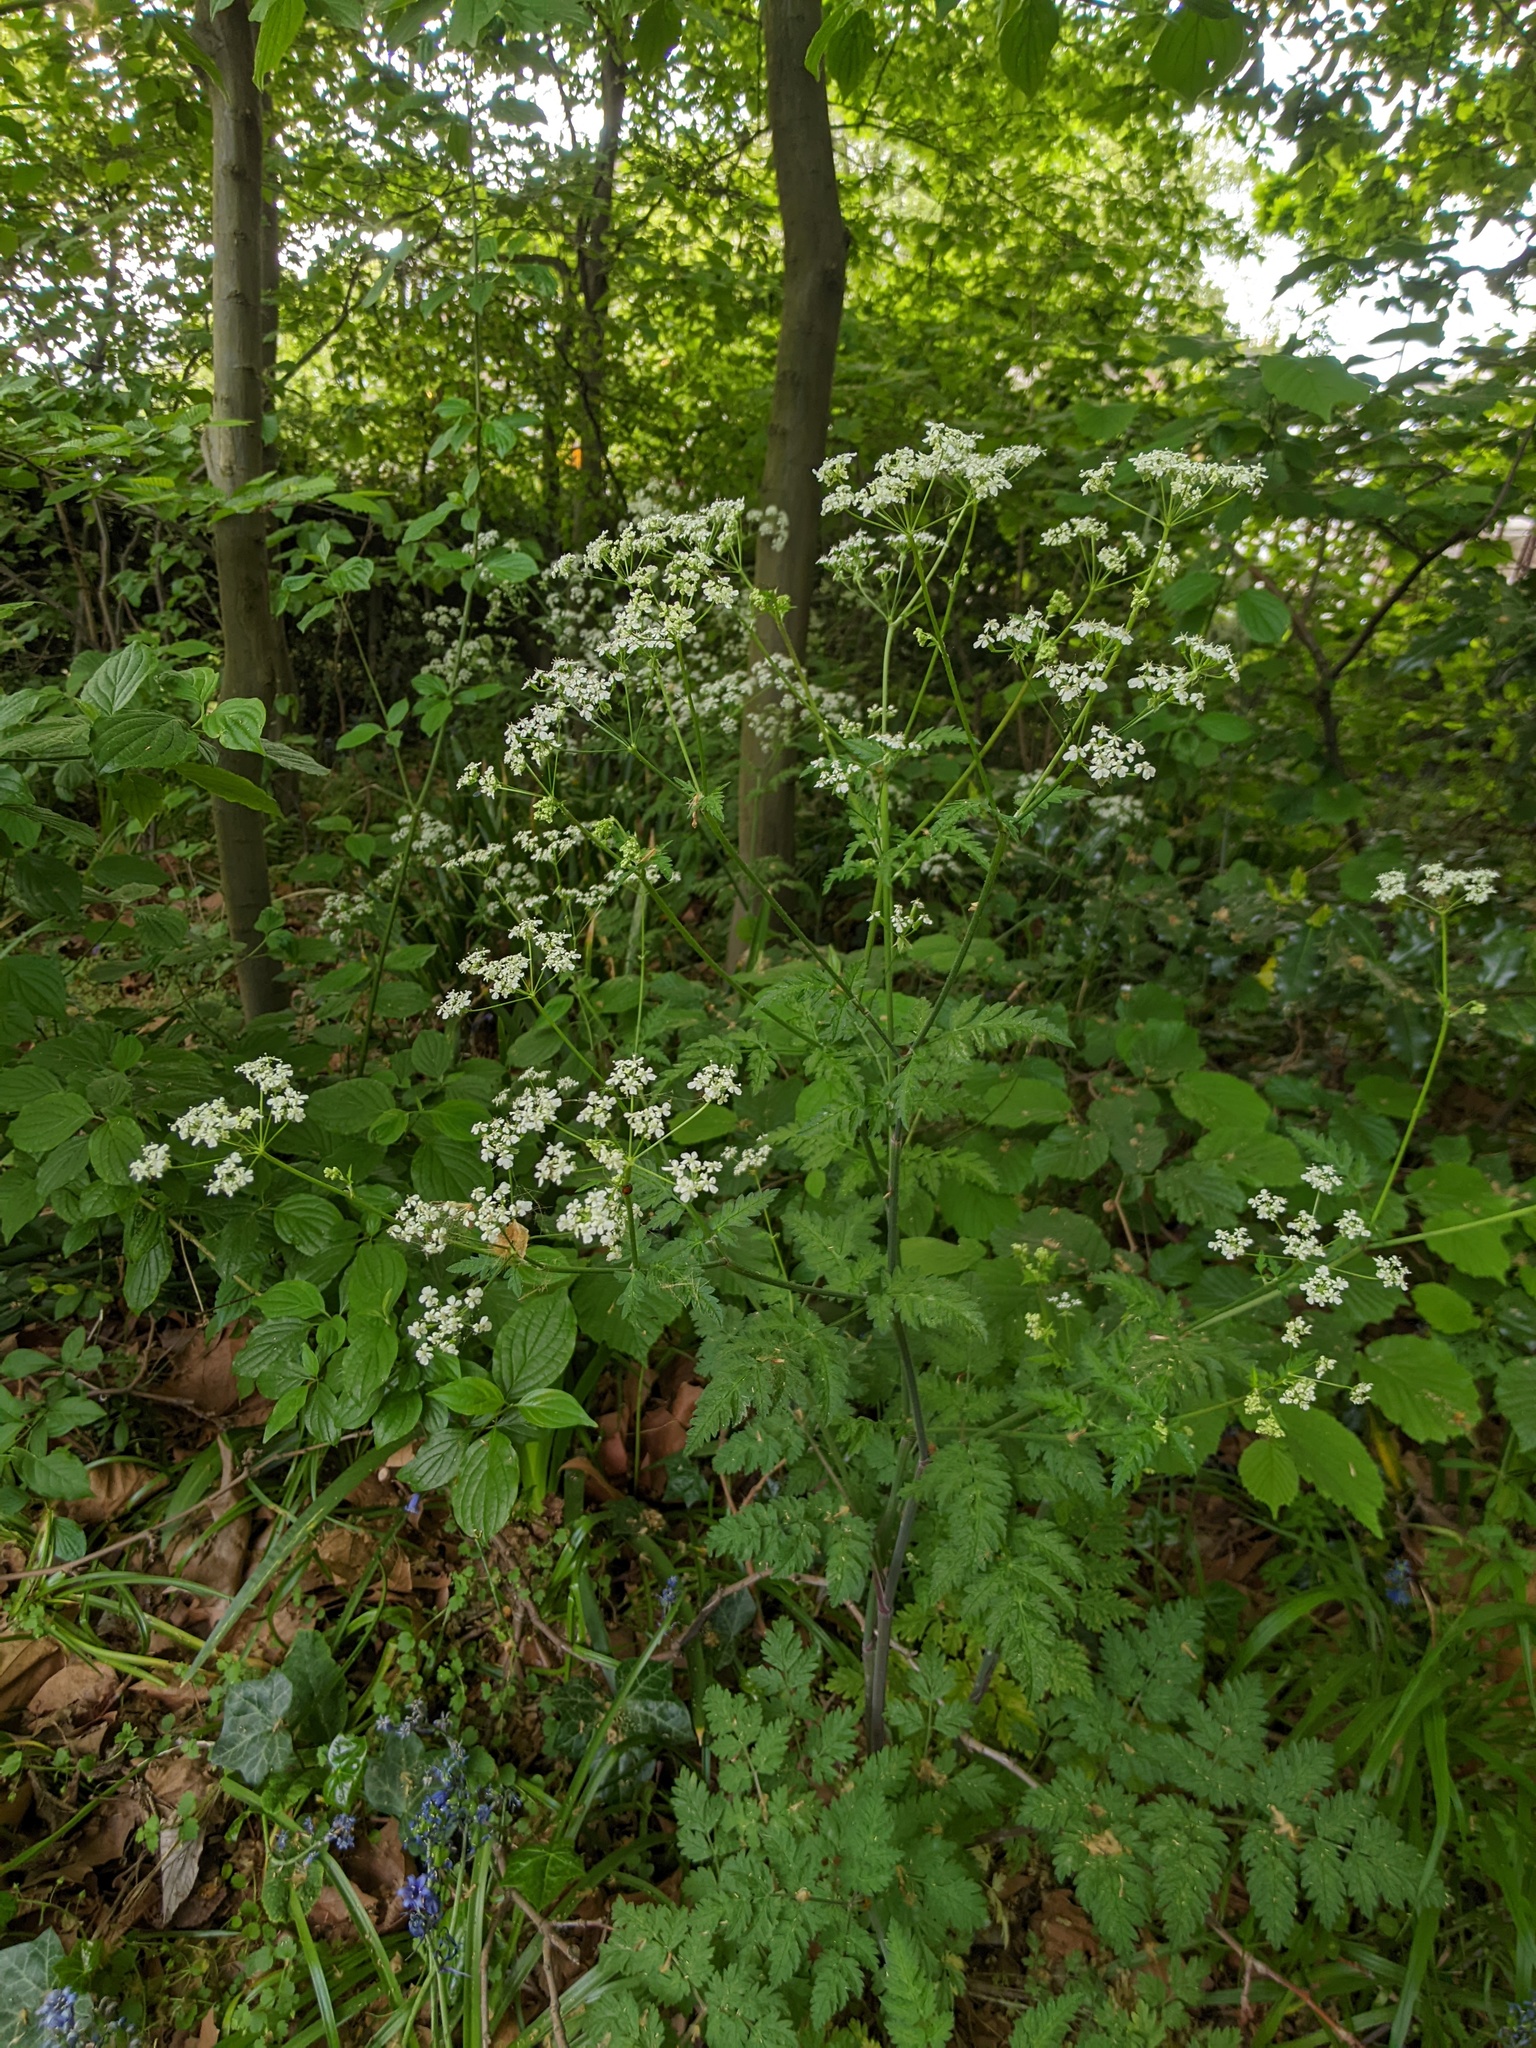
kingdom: Plantae
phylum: Tracheophyta
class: Magnoliopsida
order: Apiales
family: Apiaceae
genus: Anthriscus
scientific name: Anthriscus sylvestris
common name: Cow parsley
